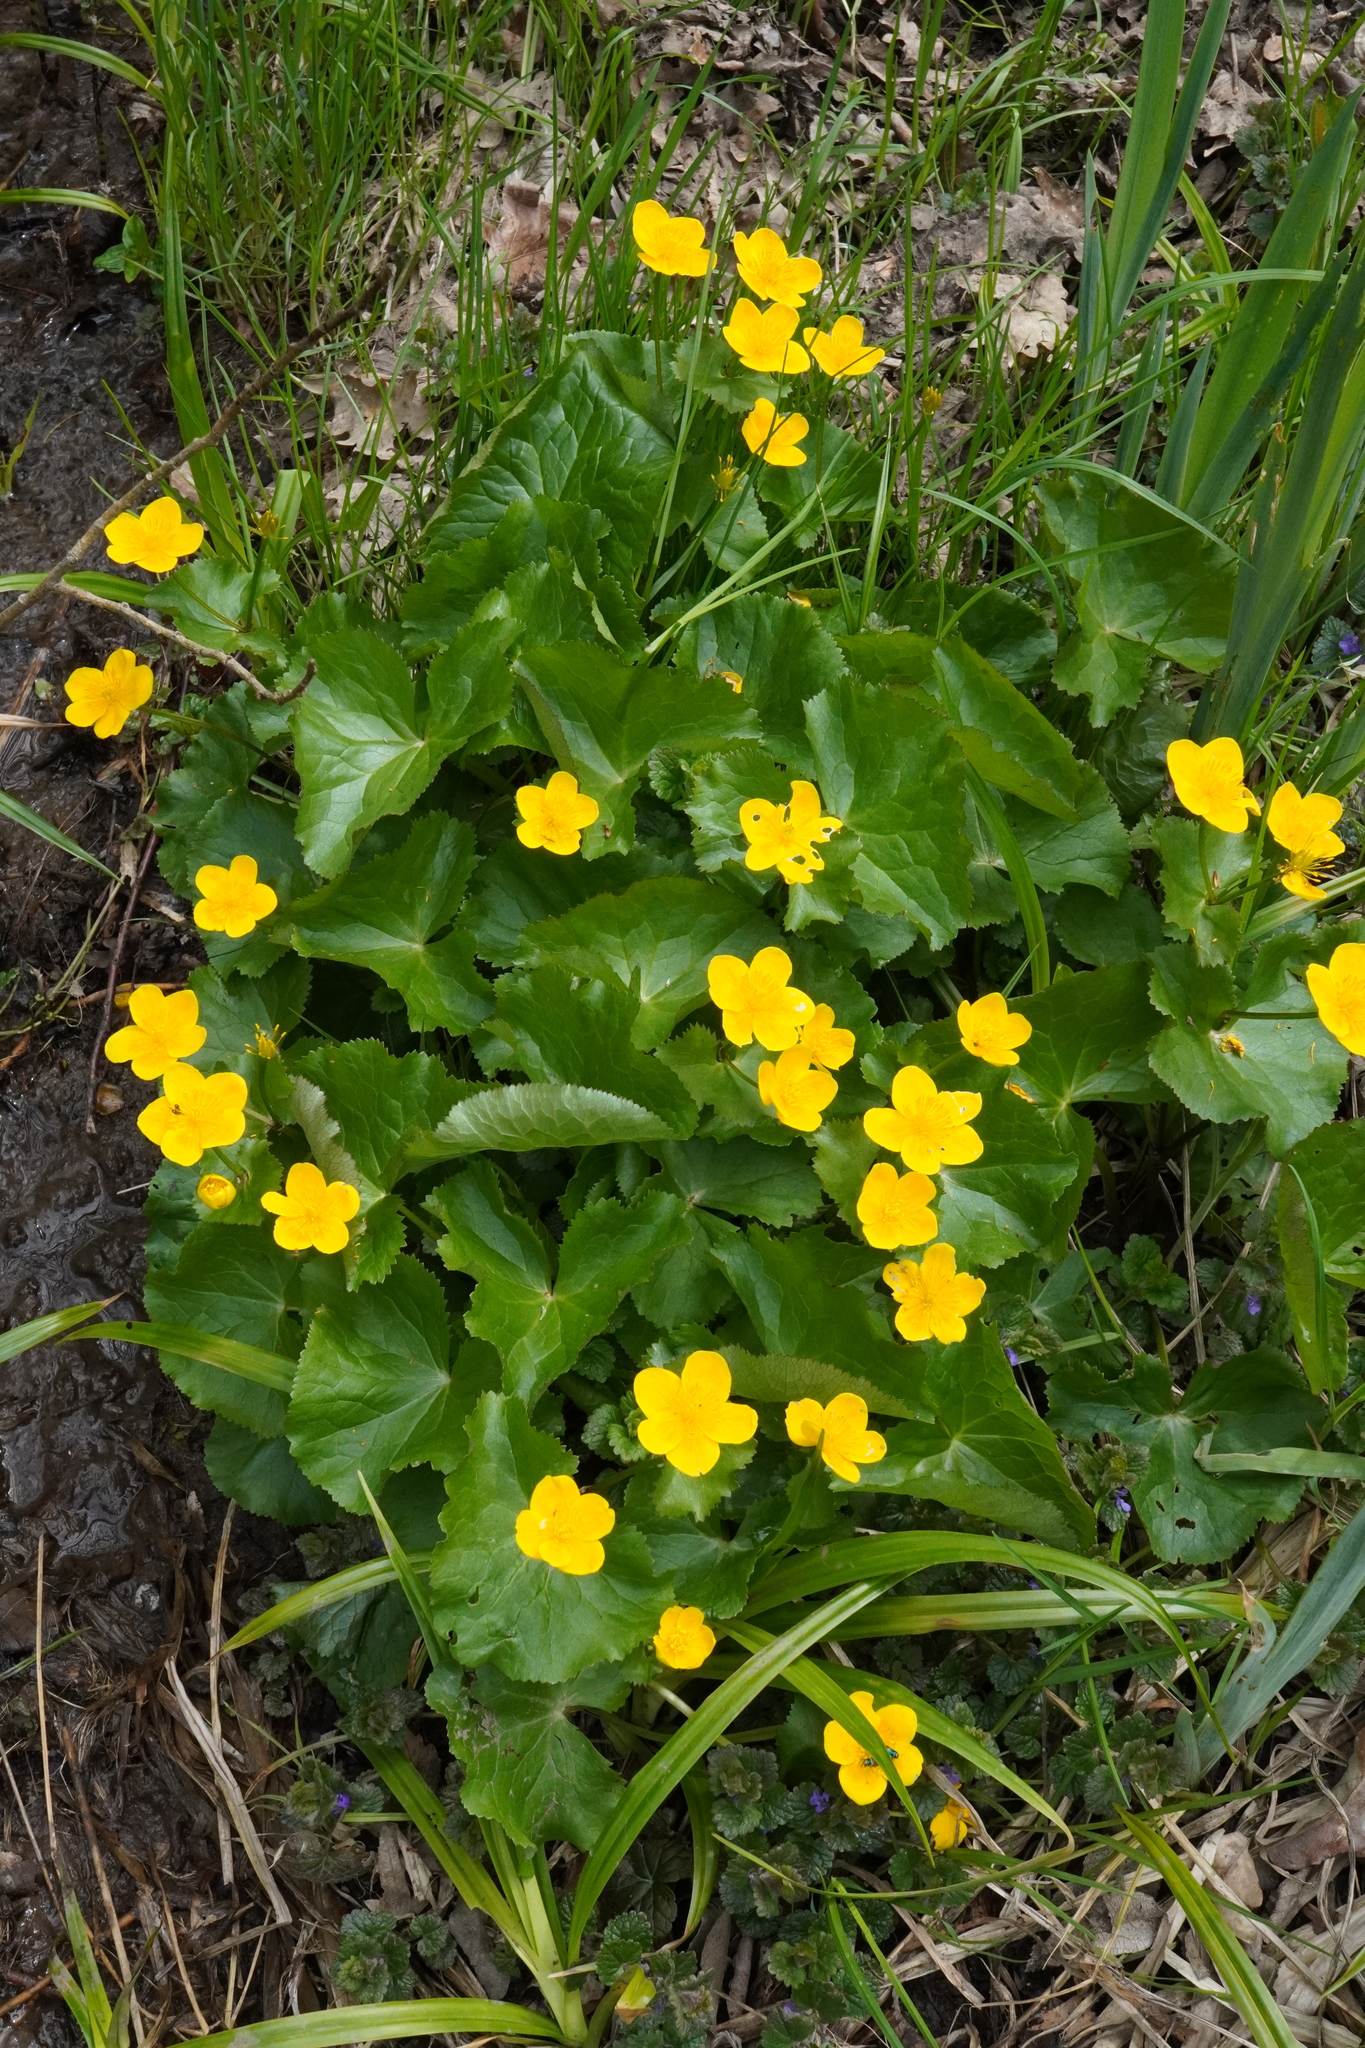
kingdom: Plantae
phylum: Tracheophyta
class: Magnoliopsida
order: Ranunculales
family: Ranunculaceae
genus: Caltha
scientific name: Caltha palustris
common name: Marsh marigold
